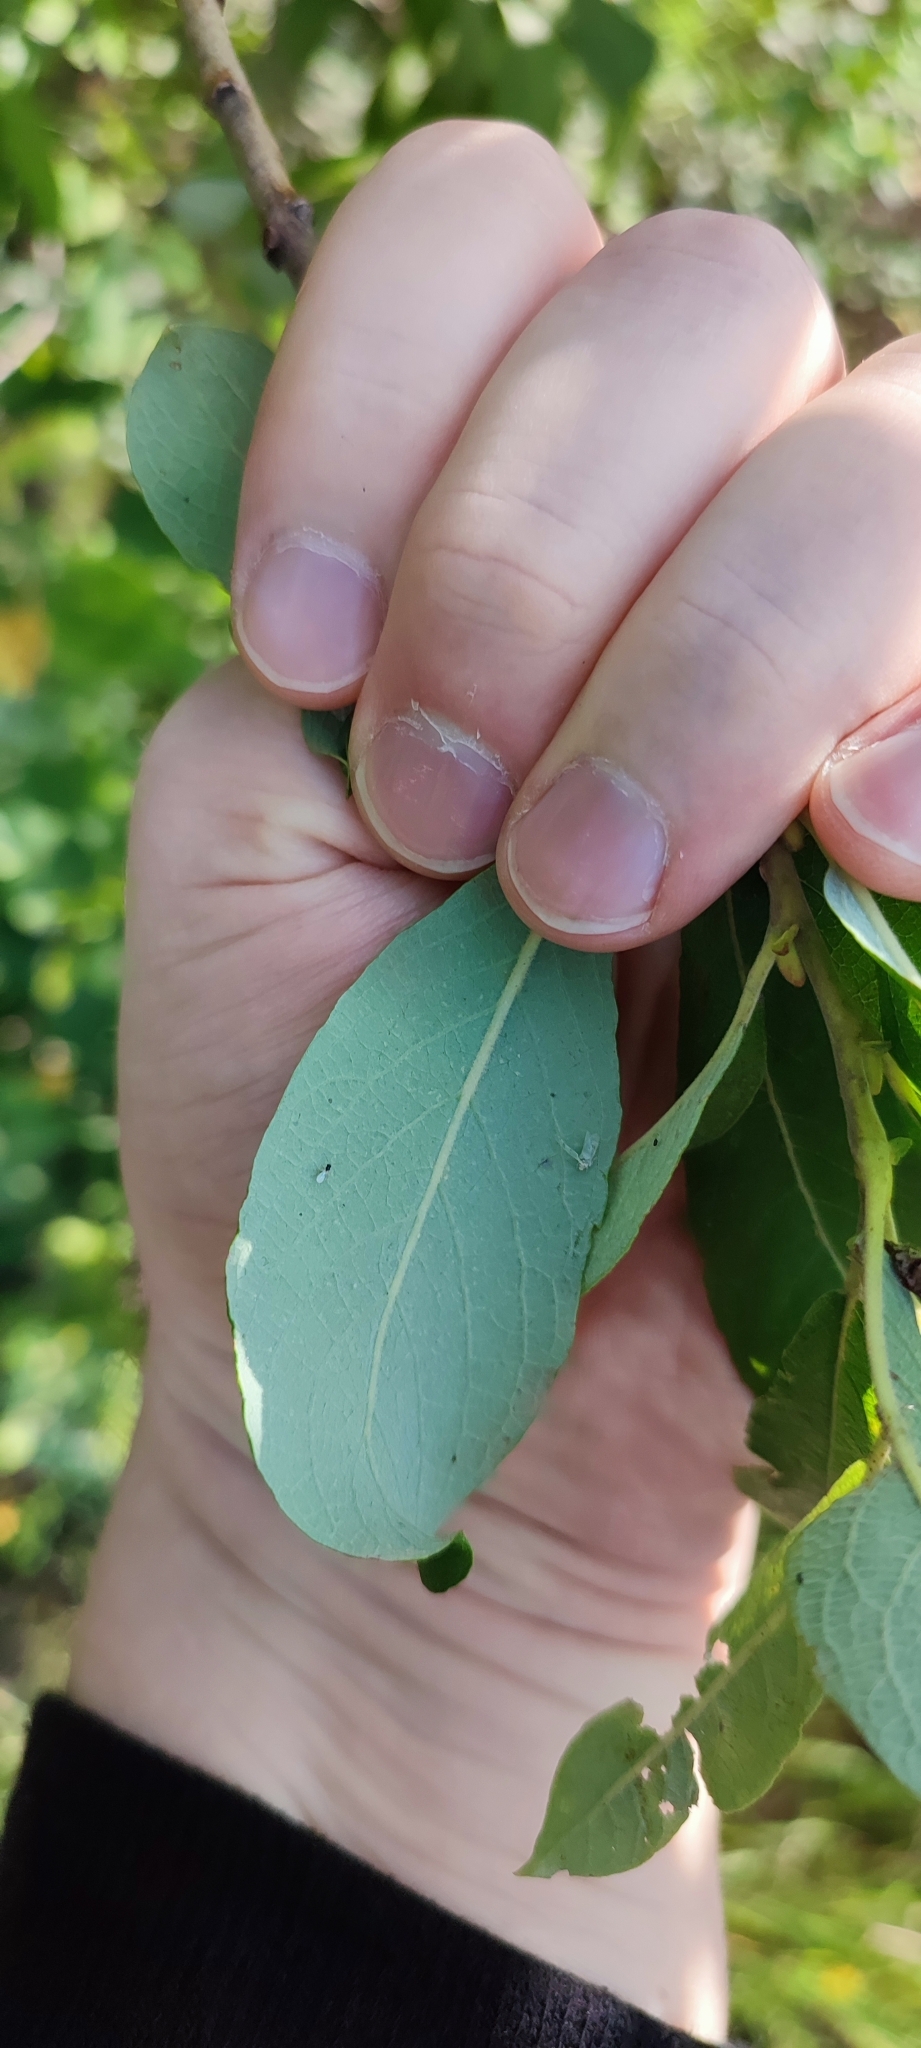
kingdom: Plantae
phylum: Tracheophyta
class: Magnoliopsida
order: Malpighiales
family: Salicaceae
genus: Salix
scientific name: Salix cinerea
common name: Common sallow
